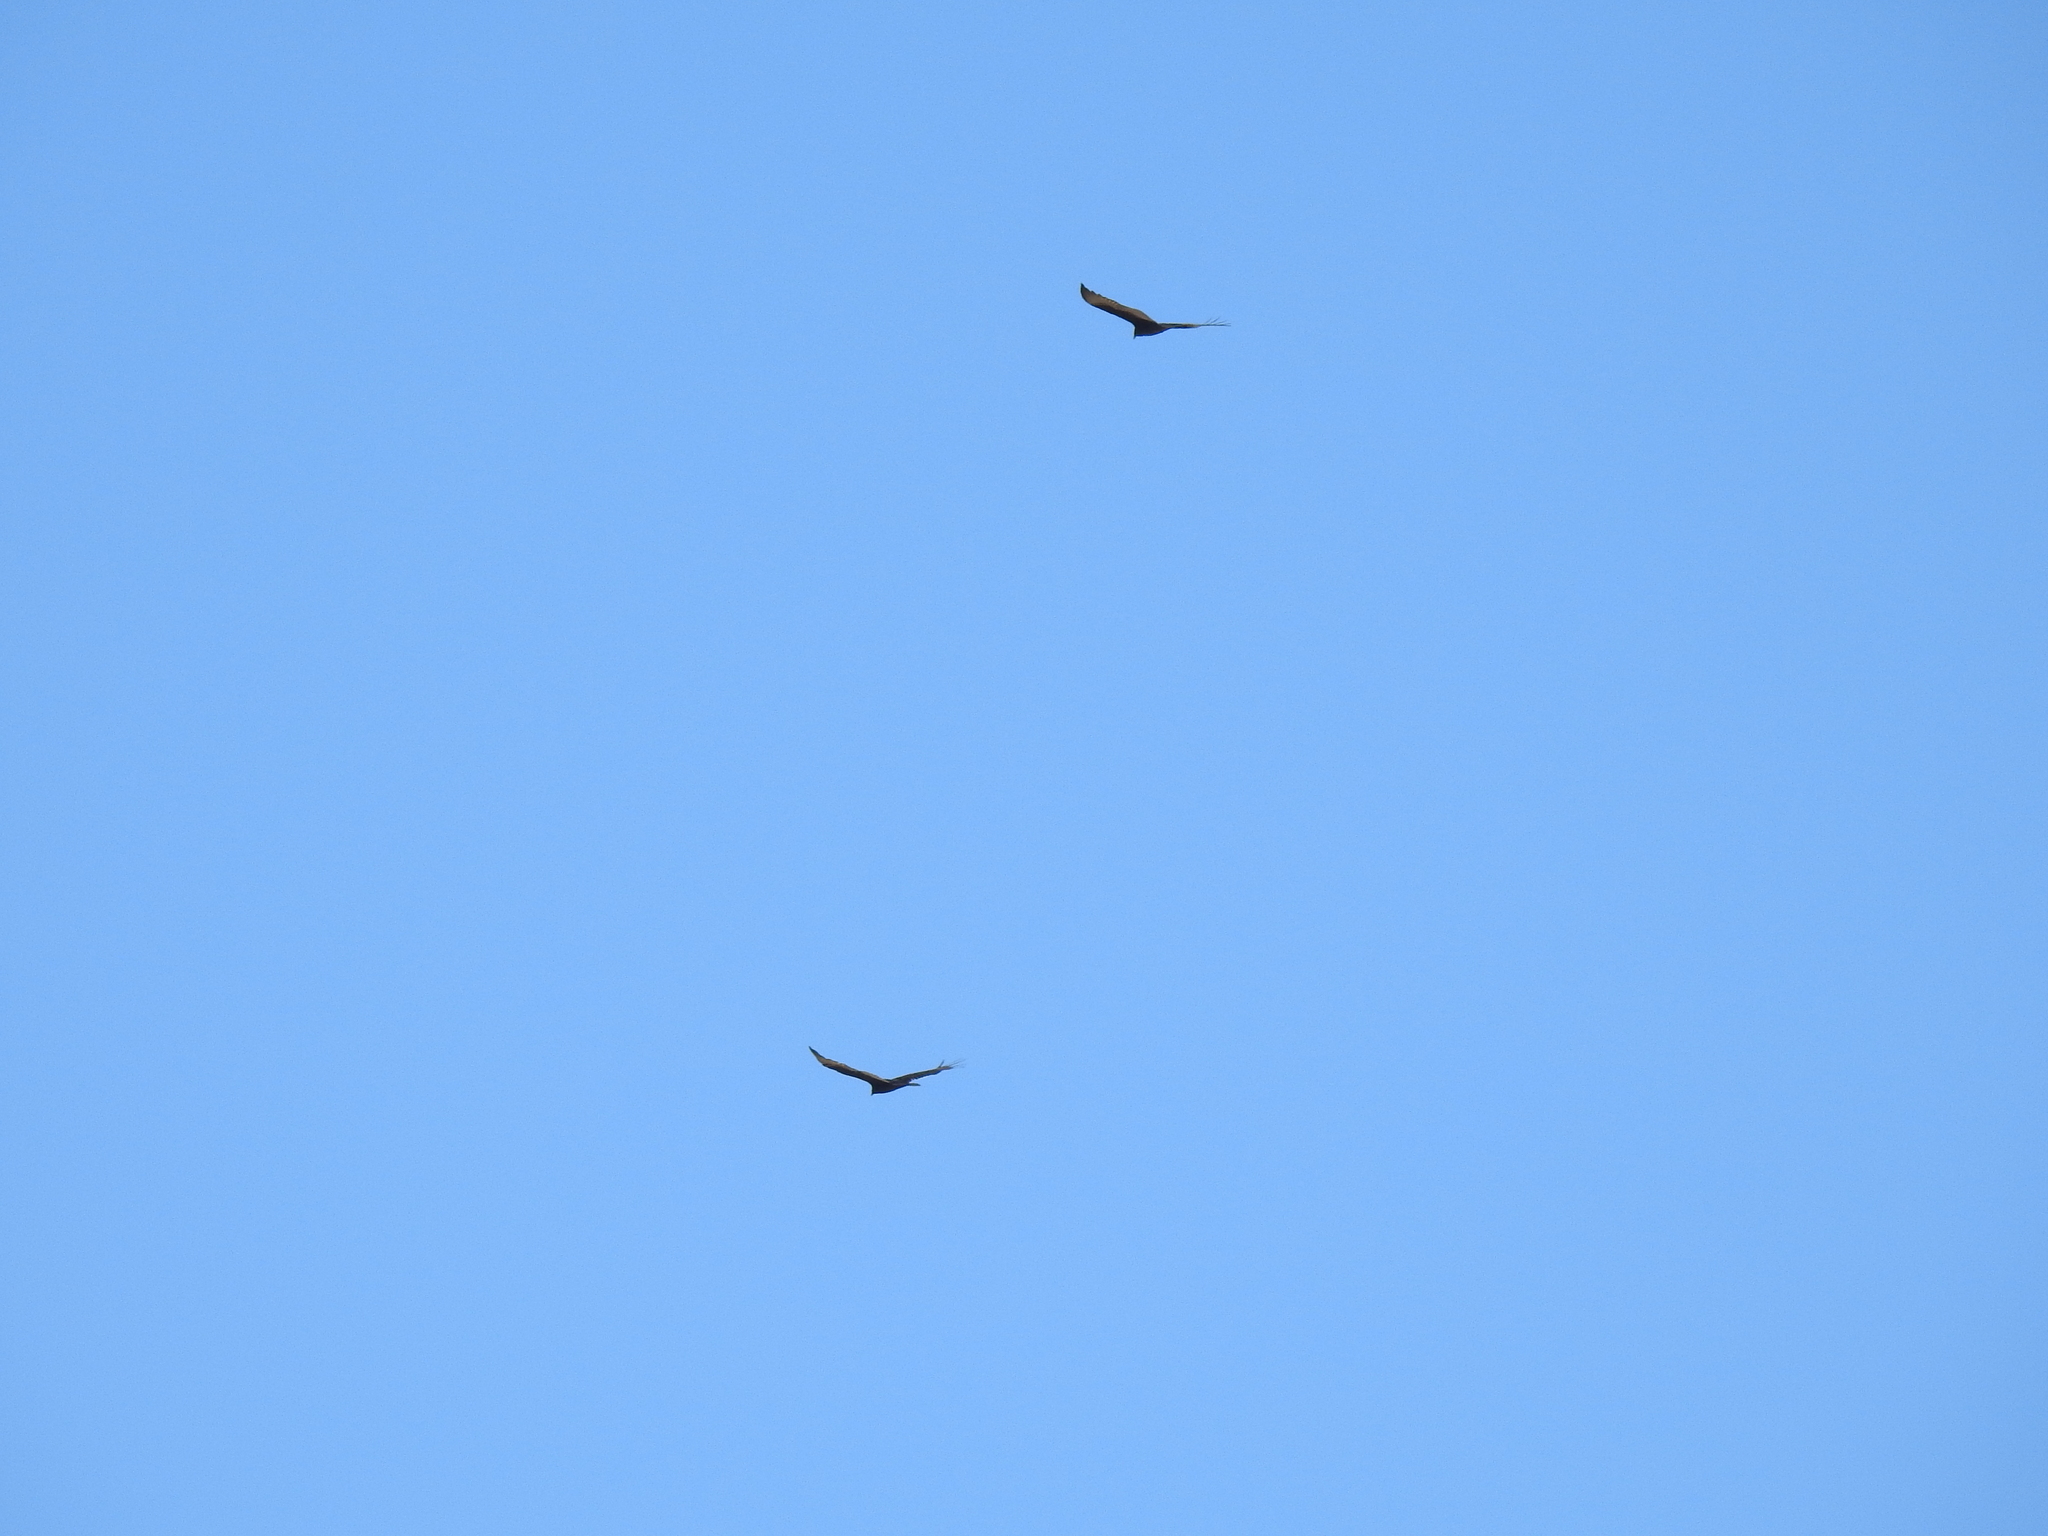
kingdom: Animalia
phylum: Chordata
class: Aves
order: Accipitriformes
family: Cathartidae
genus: Cathartes
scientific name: Cathartes aura
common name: Turkey vulture
